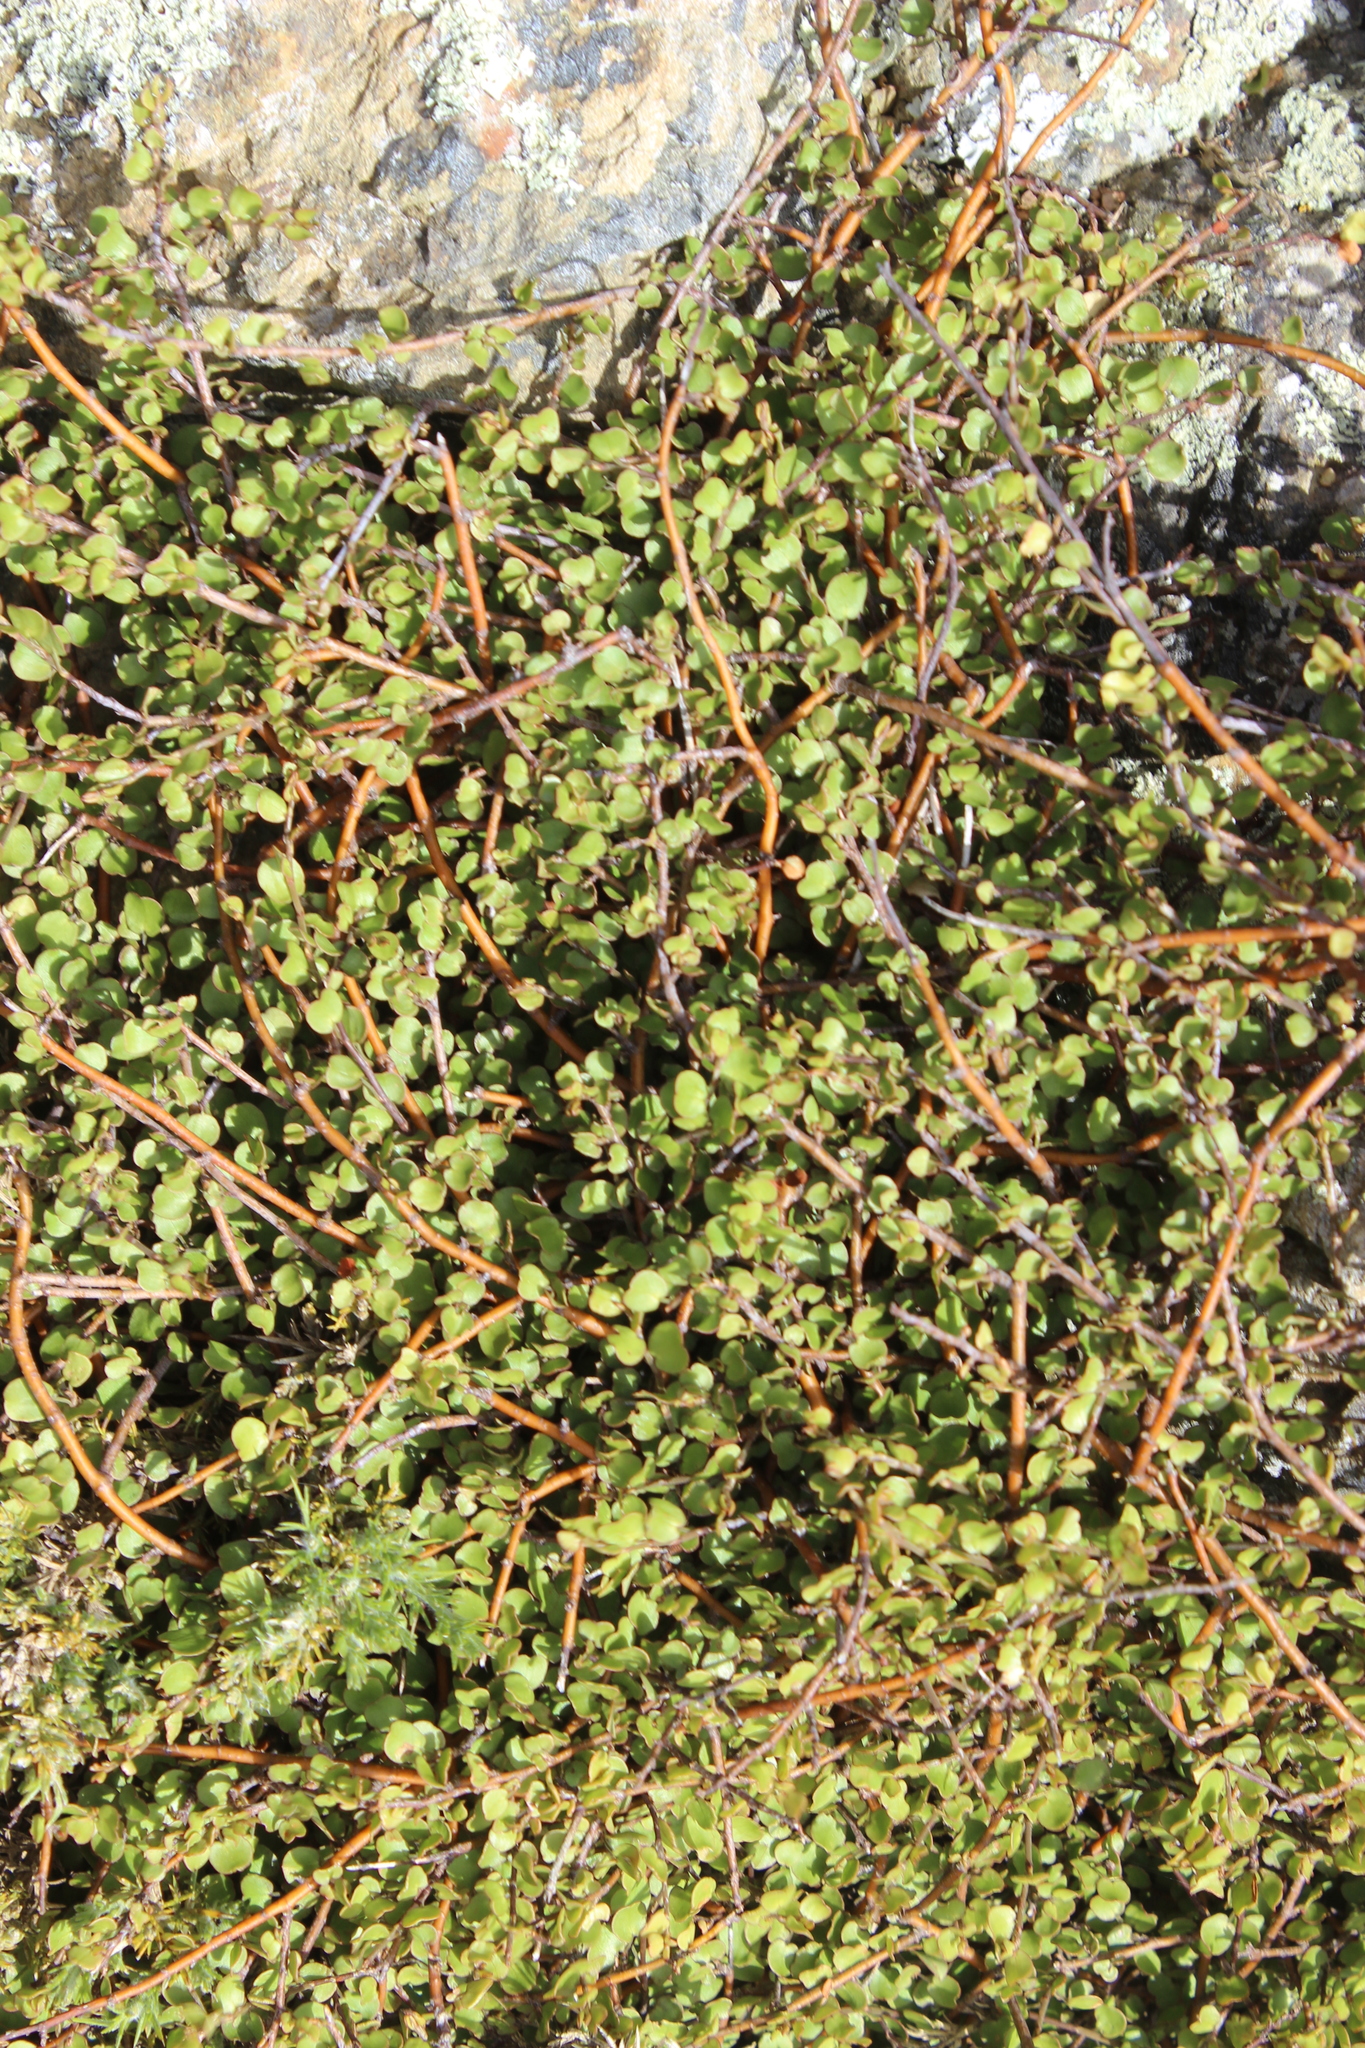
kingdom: Plantae
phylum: Tracheophyta
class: Magnoliopsida
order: Caryophyllales
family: Polygonaceae
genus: Muehlenbeckia
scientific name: Muehlenbeckia complexa
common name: Wireplant
